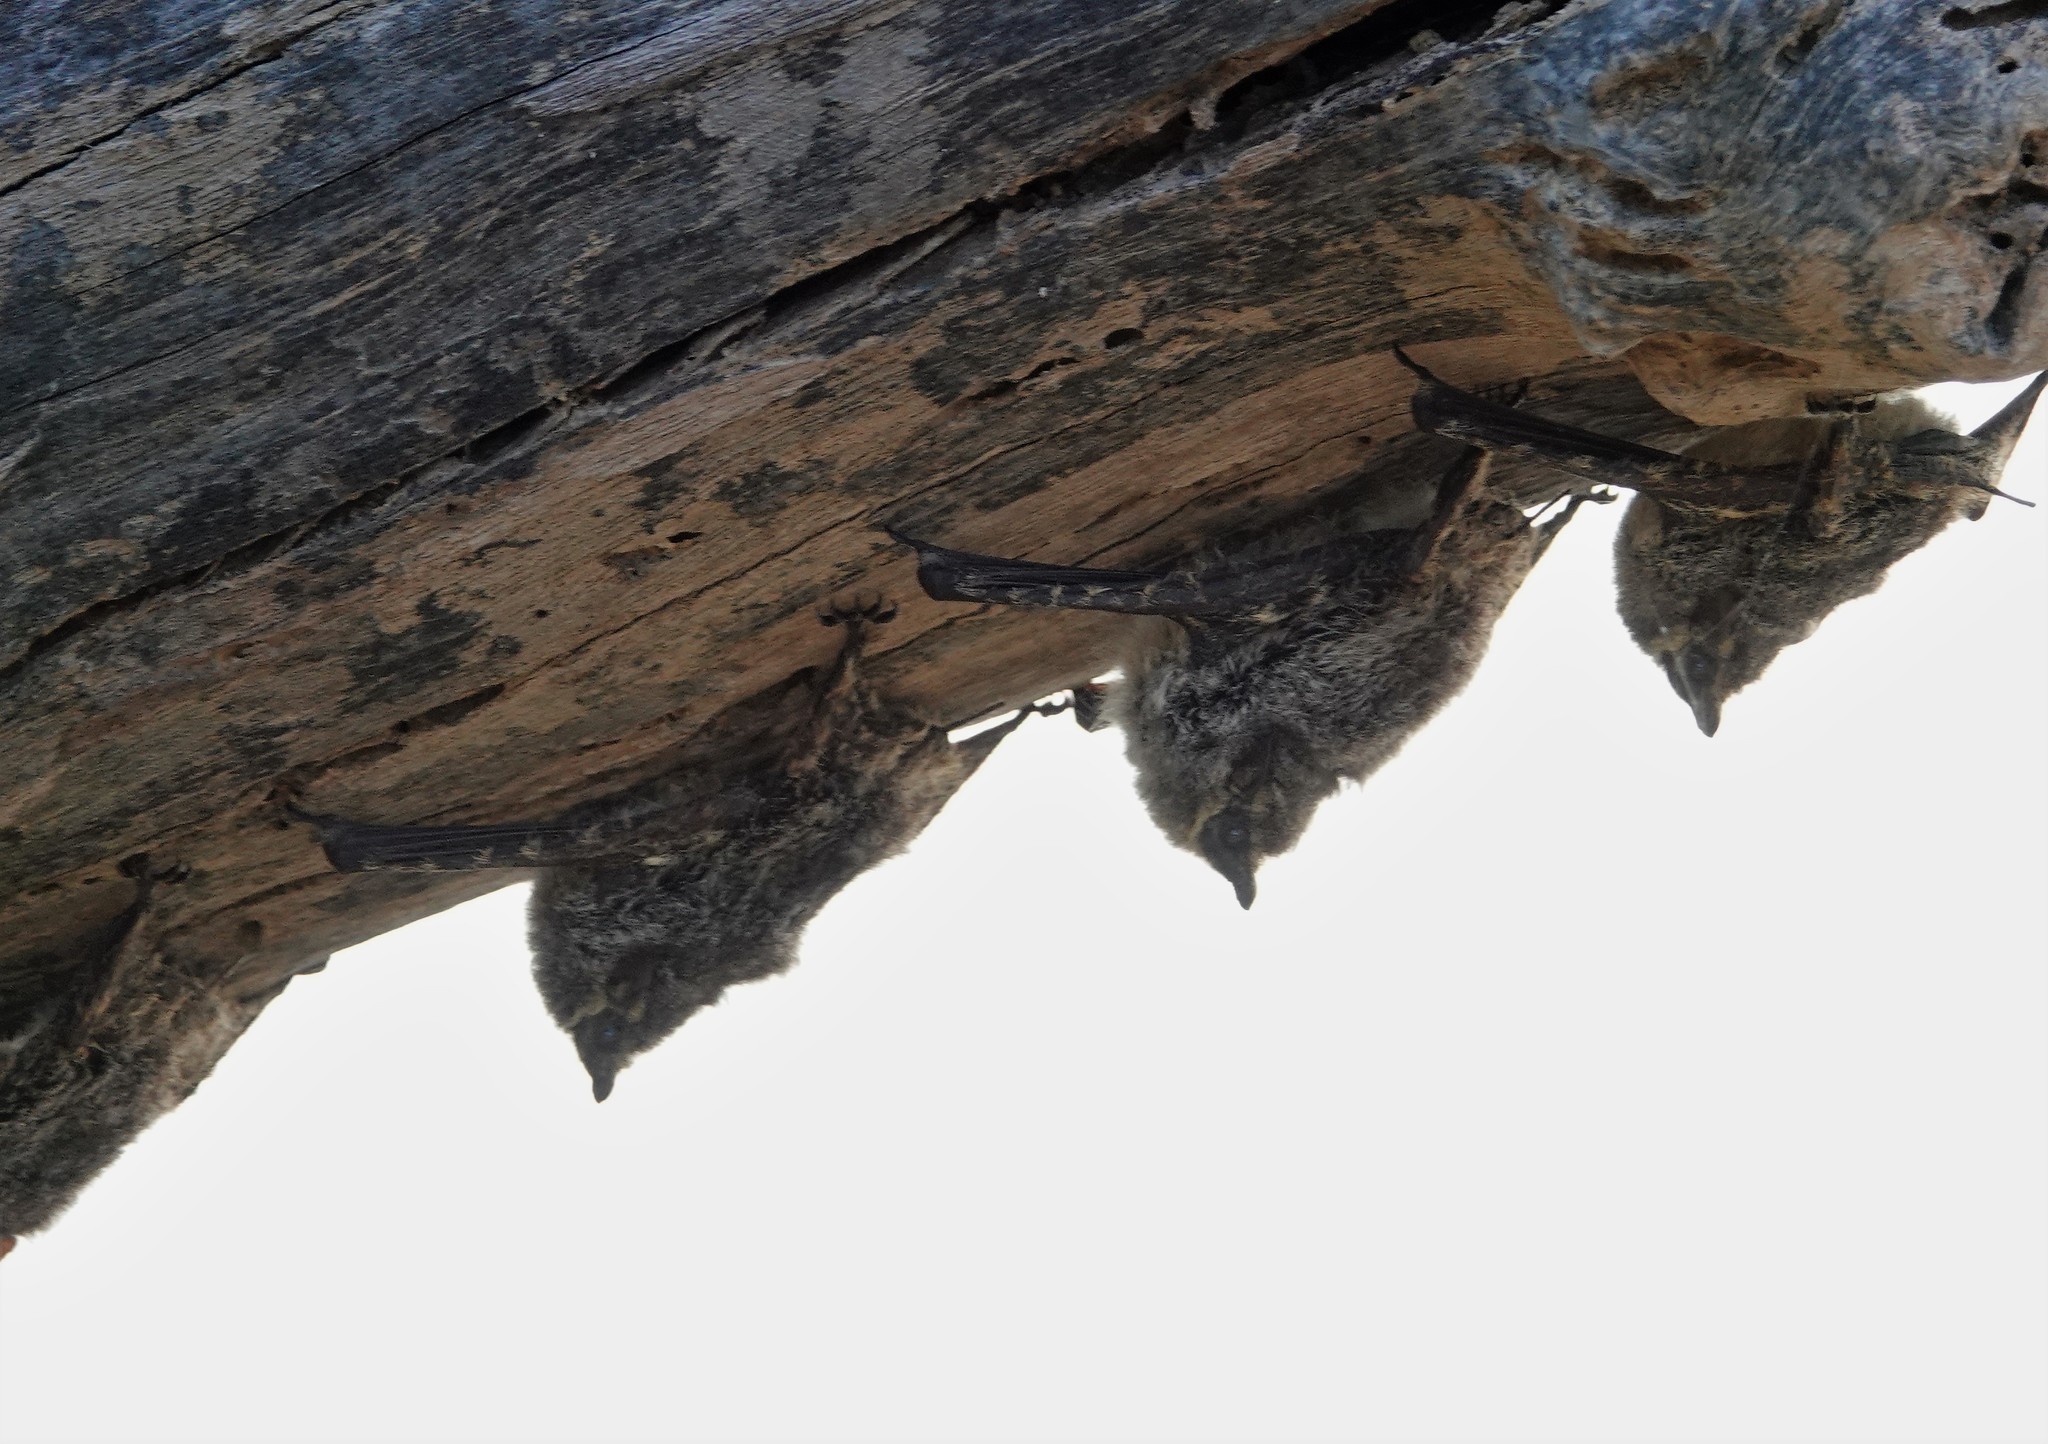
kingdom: Animalia
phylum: Chordata
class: Mammalia
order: Chiroptera
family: Emballonuridae
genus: Rhynchonycteris
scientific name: Rhynchonycteris naso
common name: Proboscis bat
